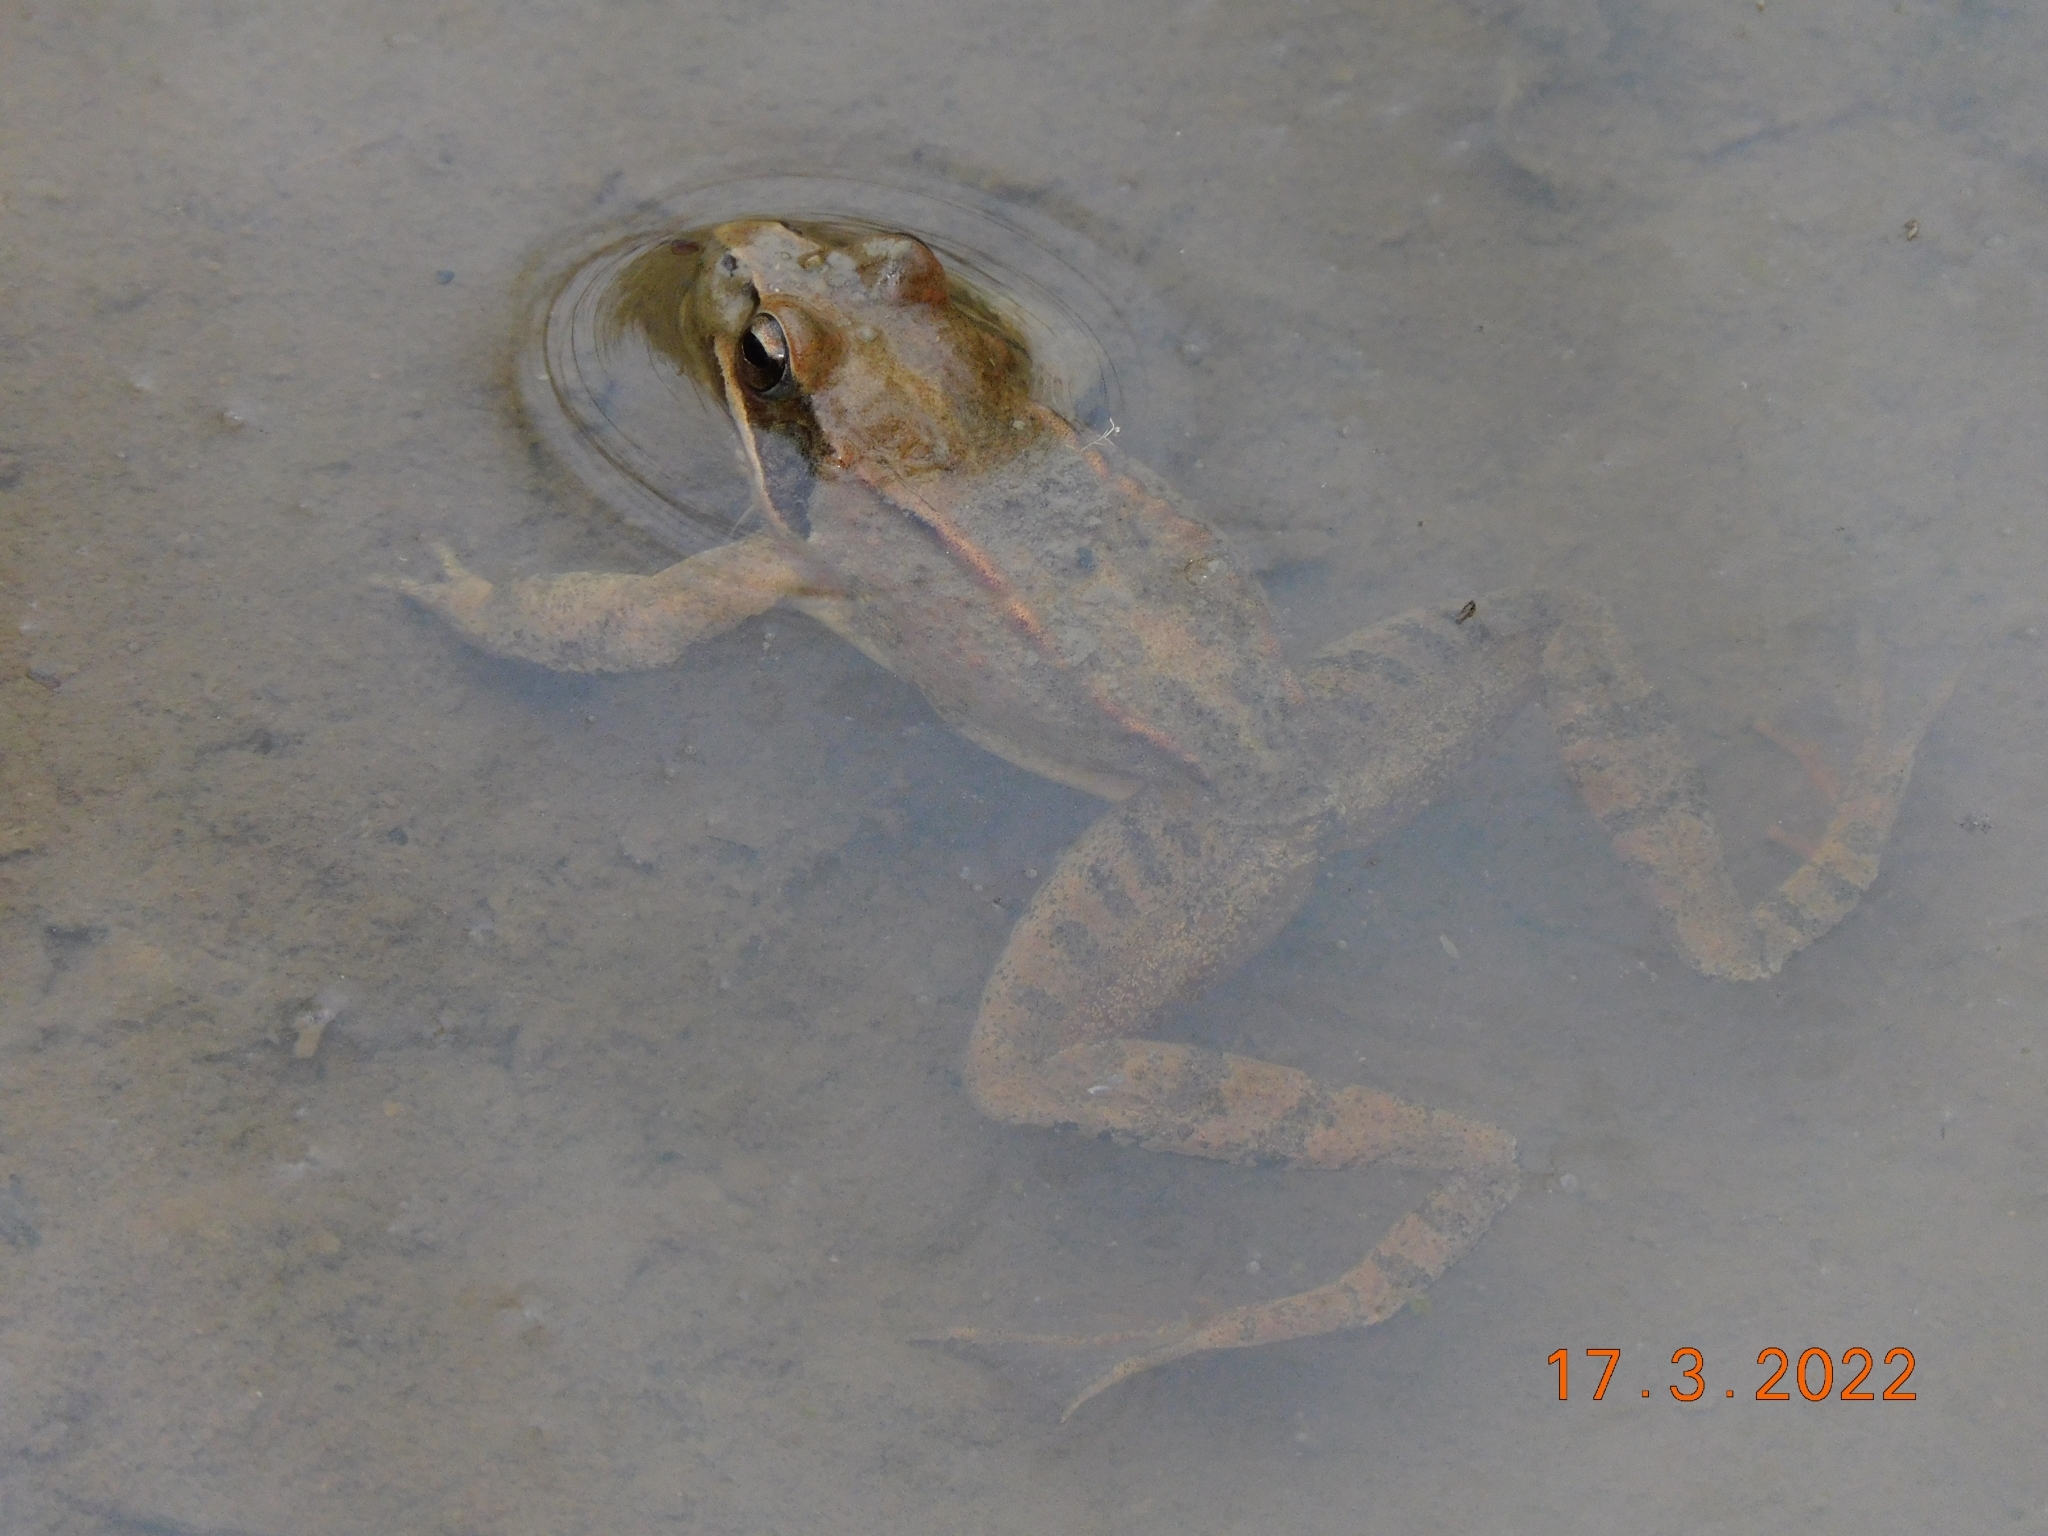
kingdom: Animalia
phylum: Chordata
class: Amphibia
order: Anura
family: Ranidae
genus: Rana
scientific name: Rana dalmatina
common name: Agile frog
